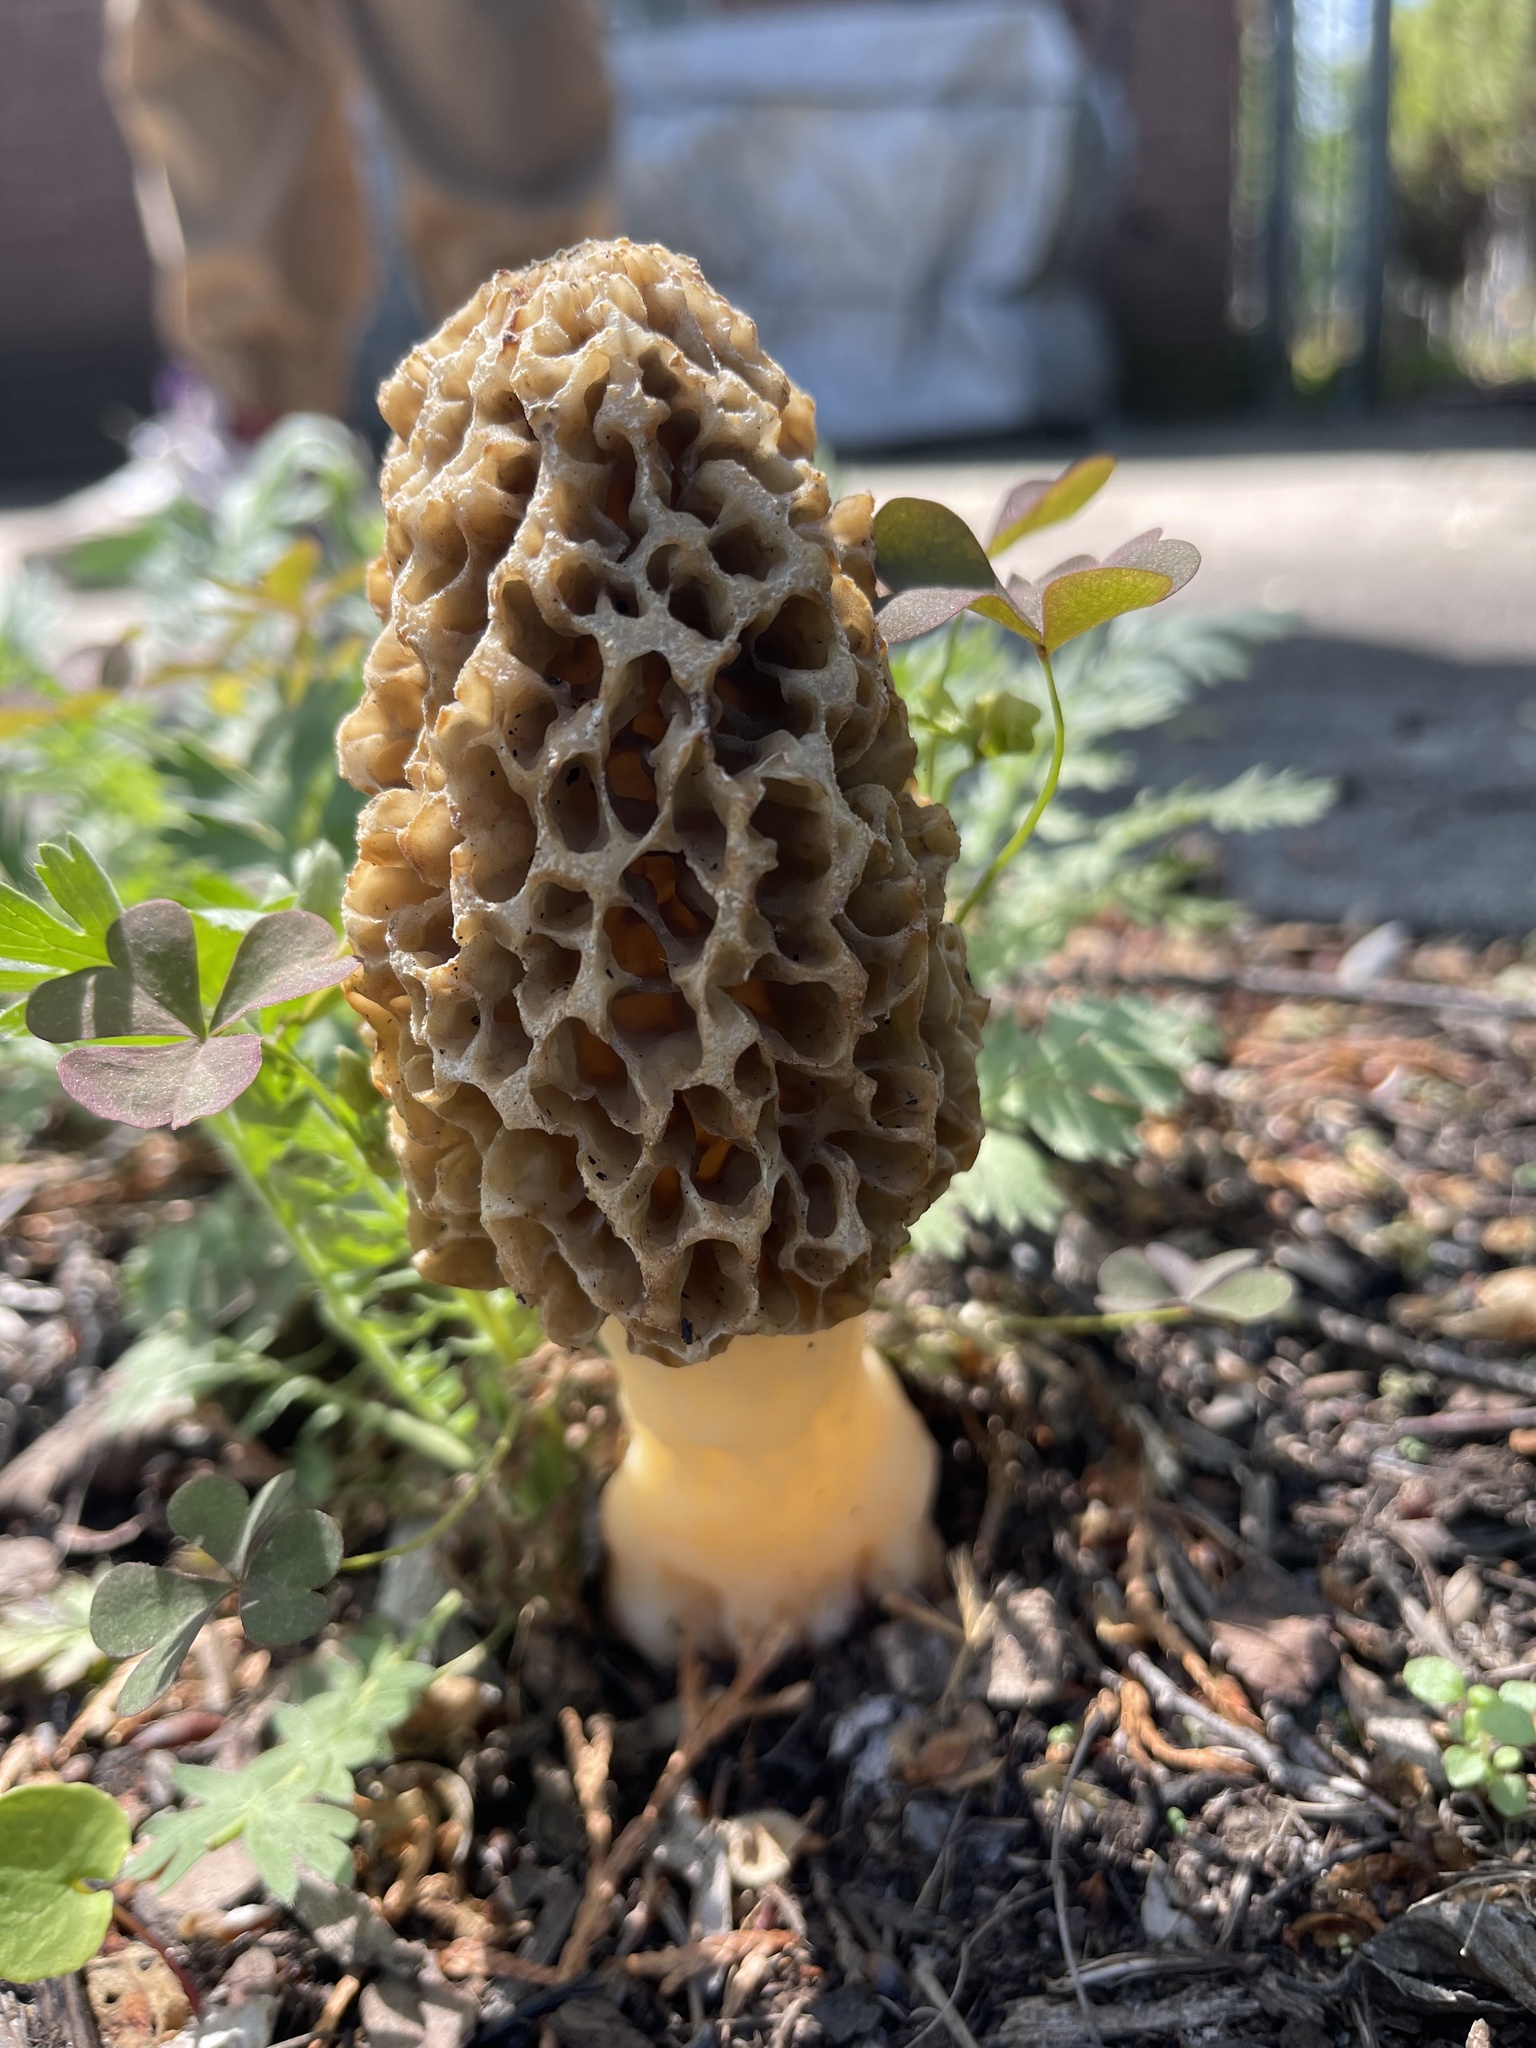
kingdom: Fungi
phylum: Ascomycota
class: Pezizomycetes
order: Pezizales
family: Morchellaceae
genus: Morchella
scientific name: Morchella americana
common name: White morel
